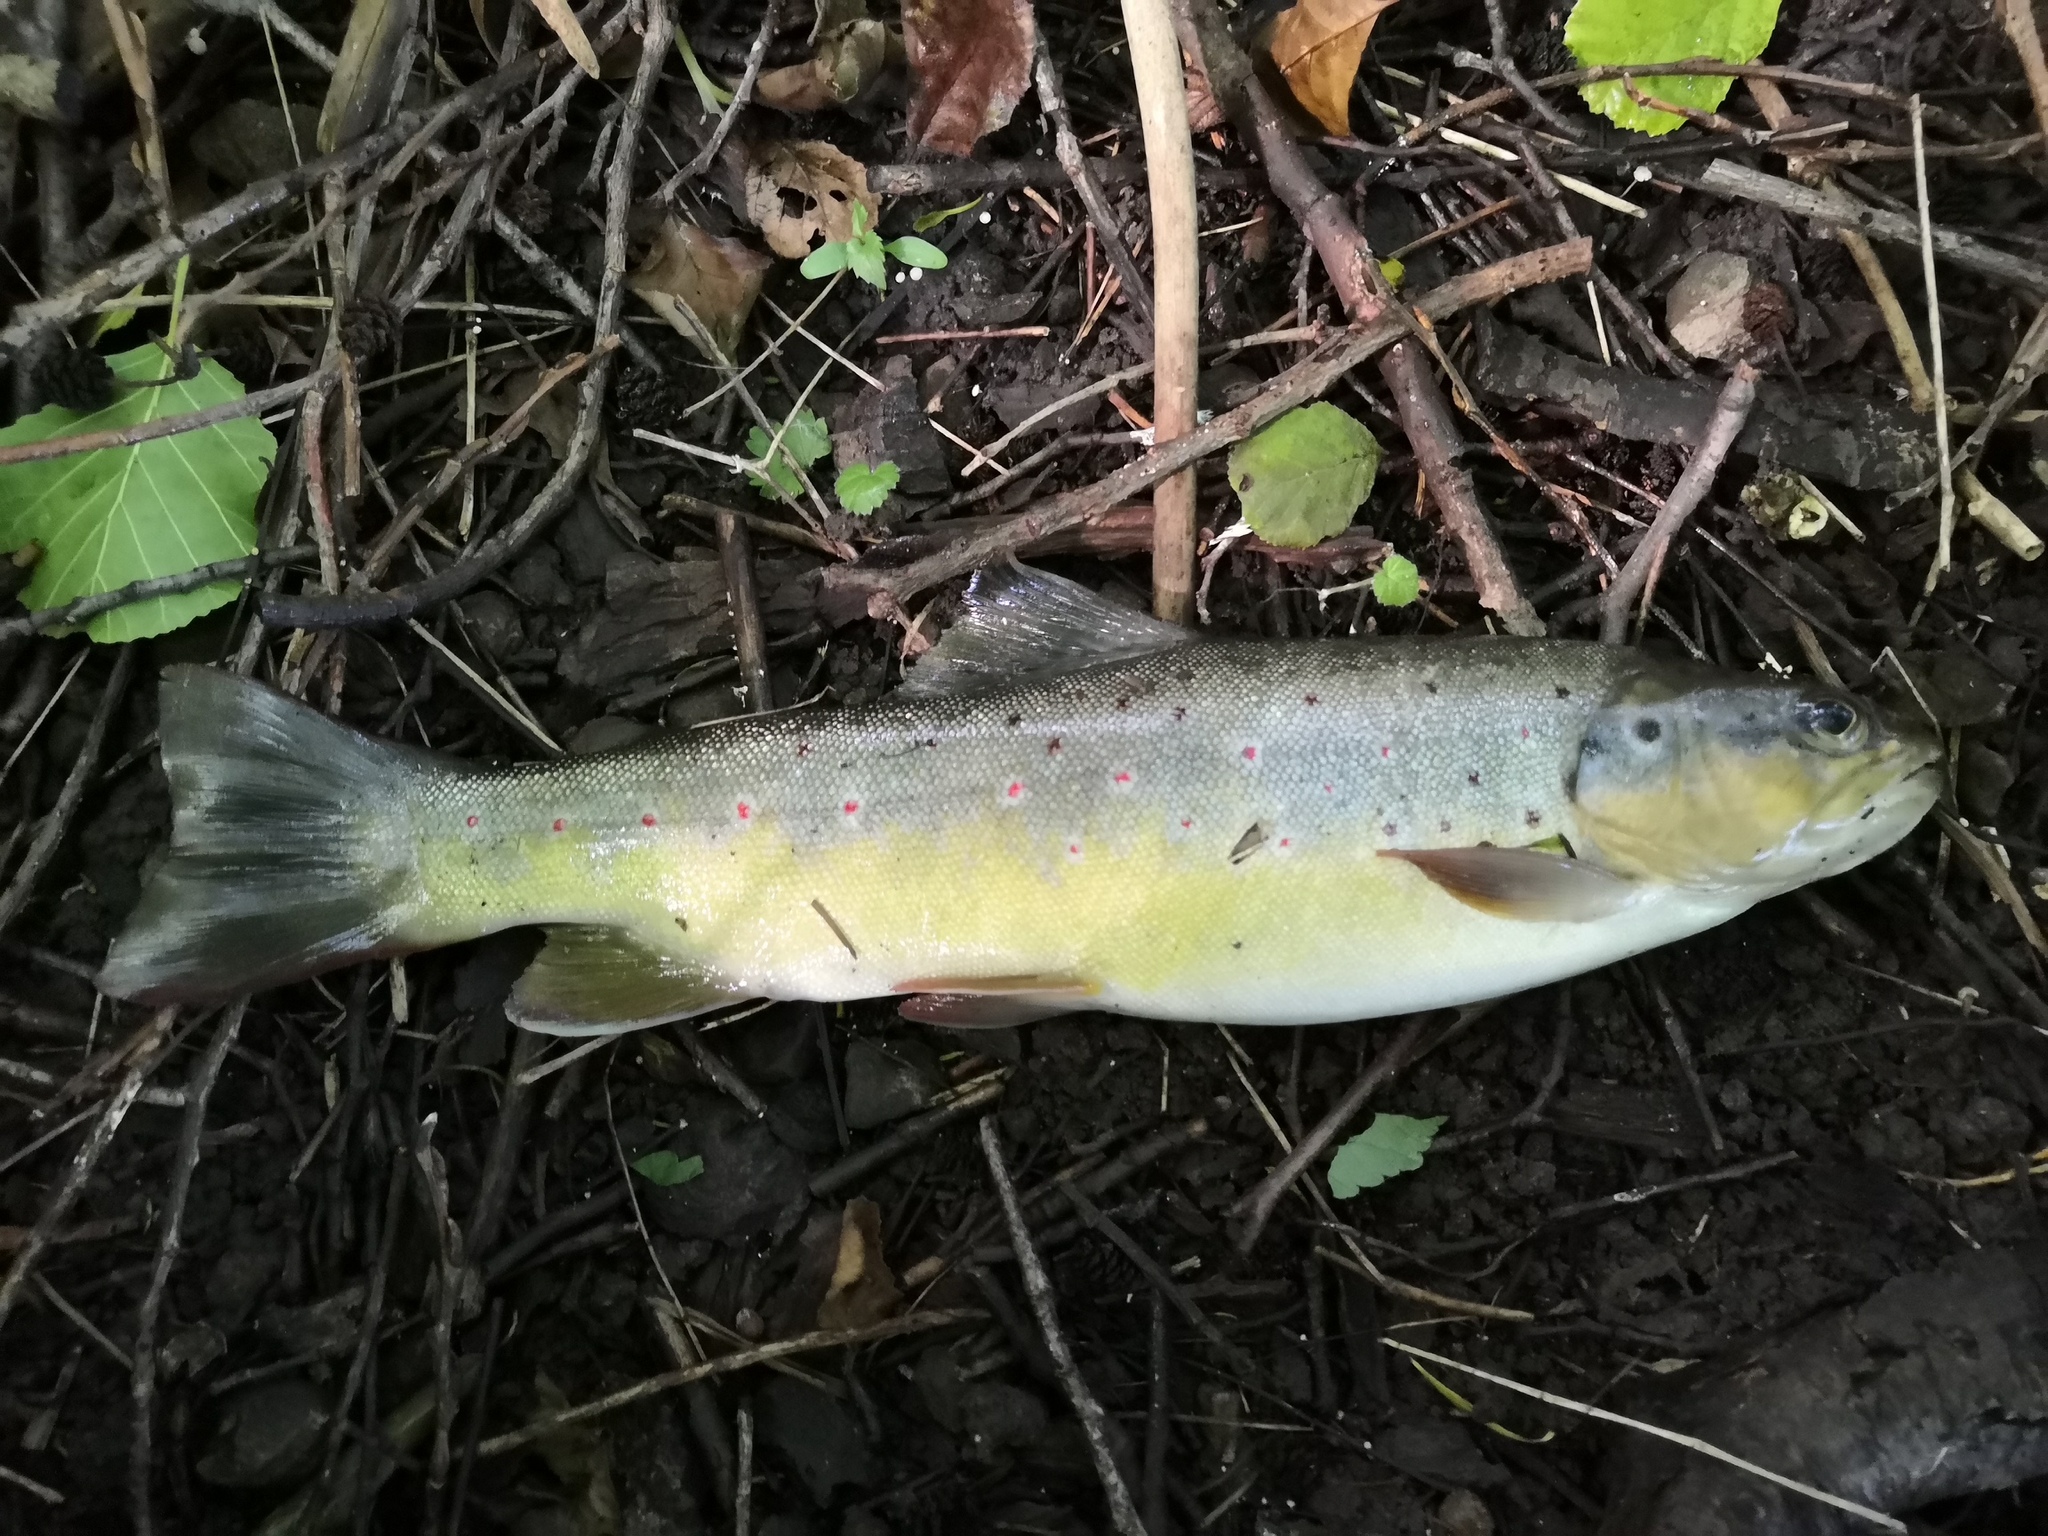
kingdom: Animalia
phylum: Chordata
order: Salmoniformes
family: Salmonidae
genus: Salmo
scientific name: Salmo trutta
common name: Brown trout
